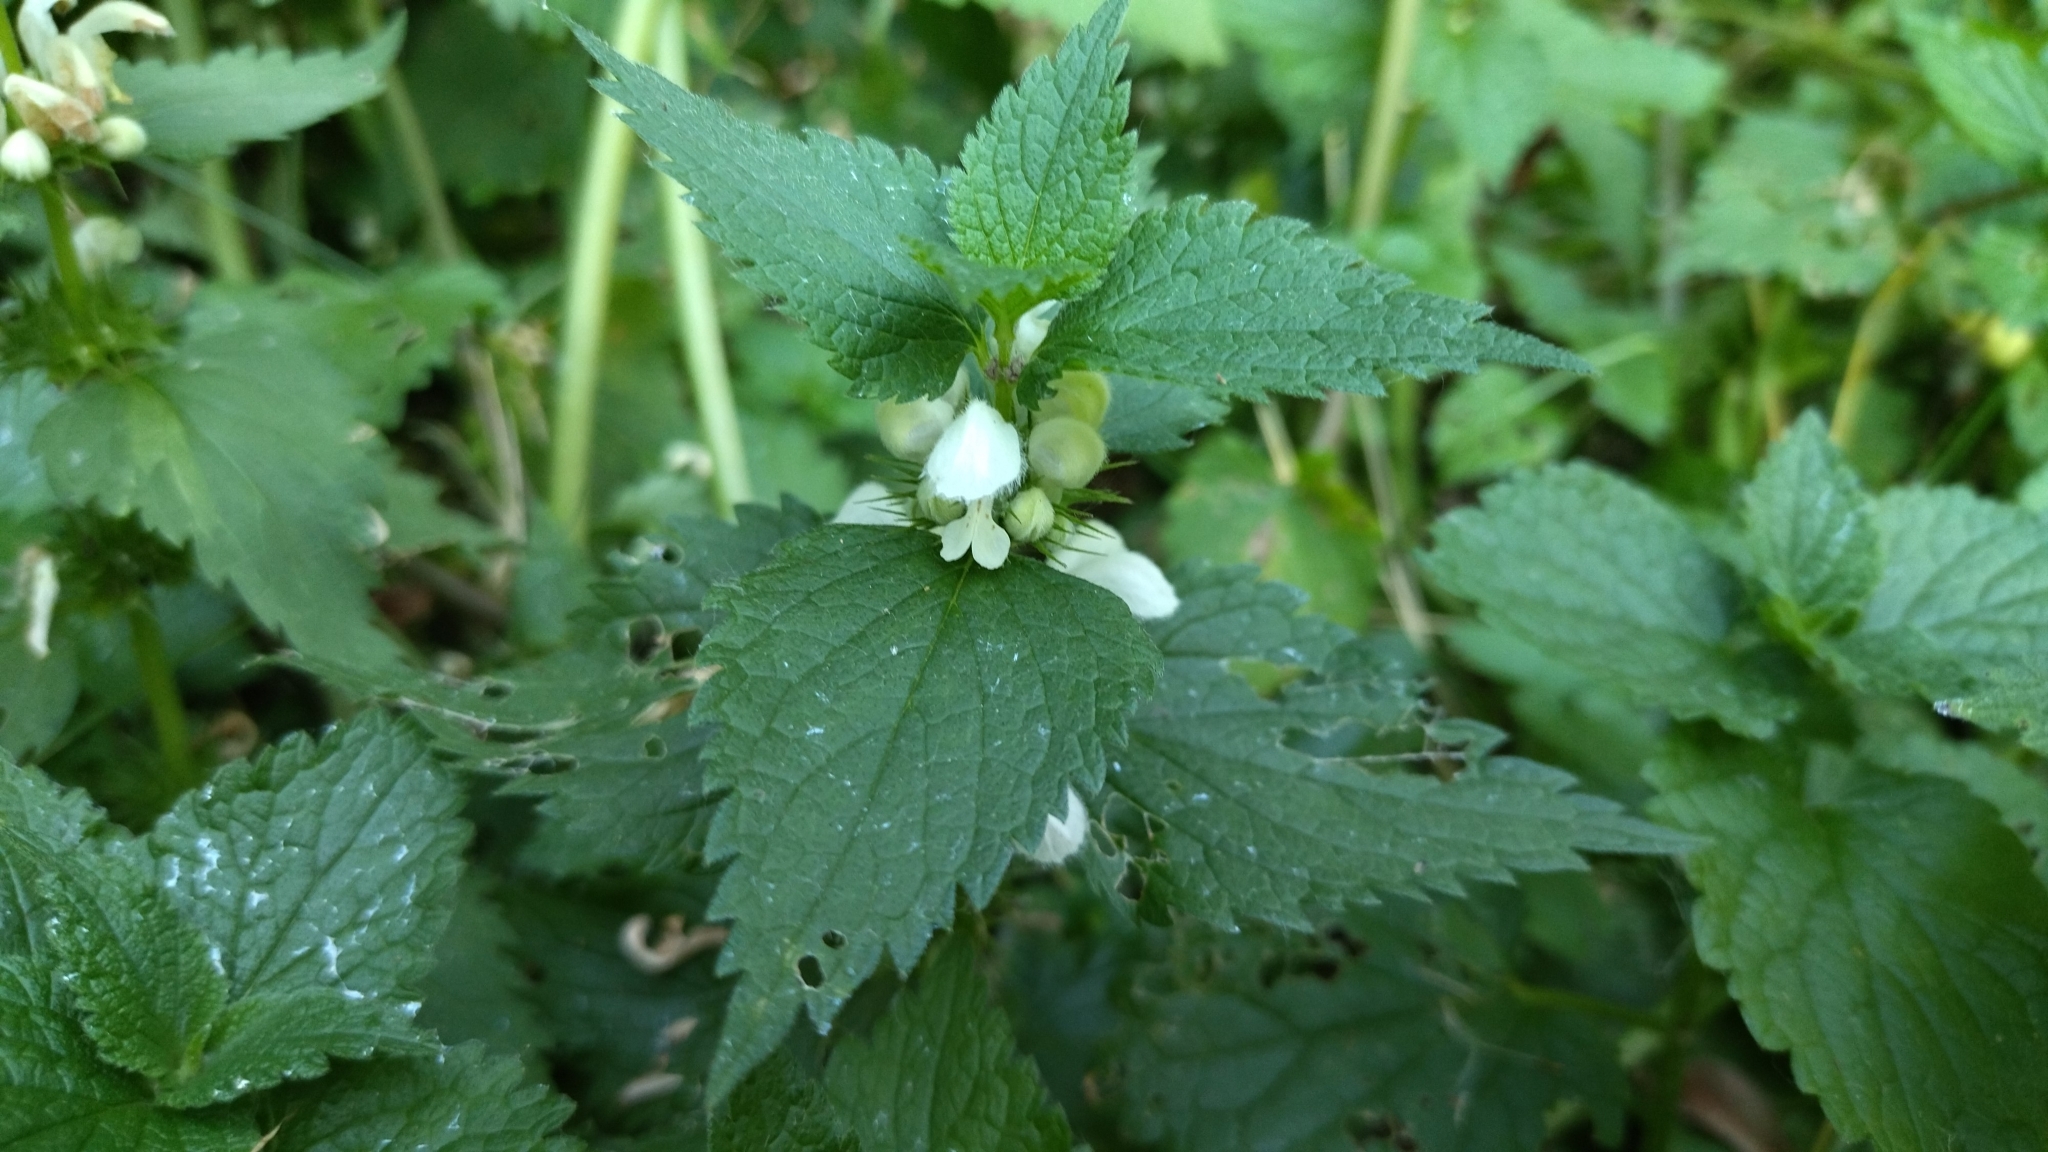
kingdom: Plantae
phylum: Tracheophyta
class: Magnoliopsida
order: Lamiales
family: Lamiaceae
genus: Lamium
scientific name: Lamium album
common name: White dead-nettle
